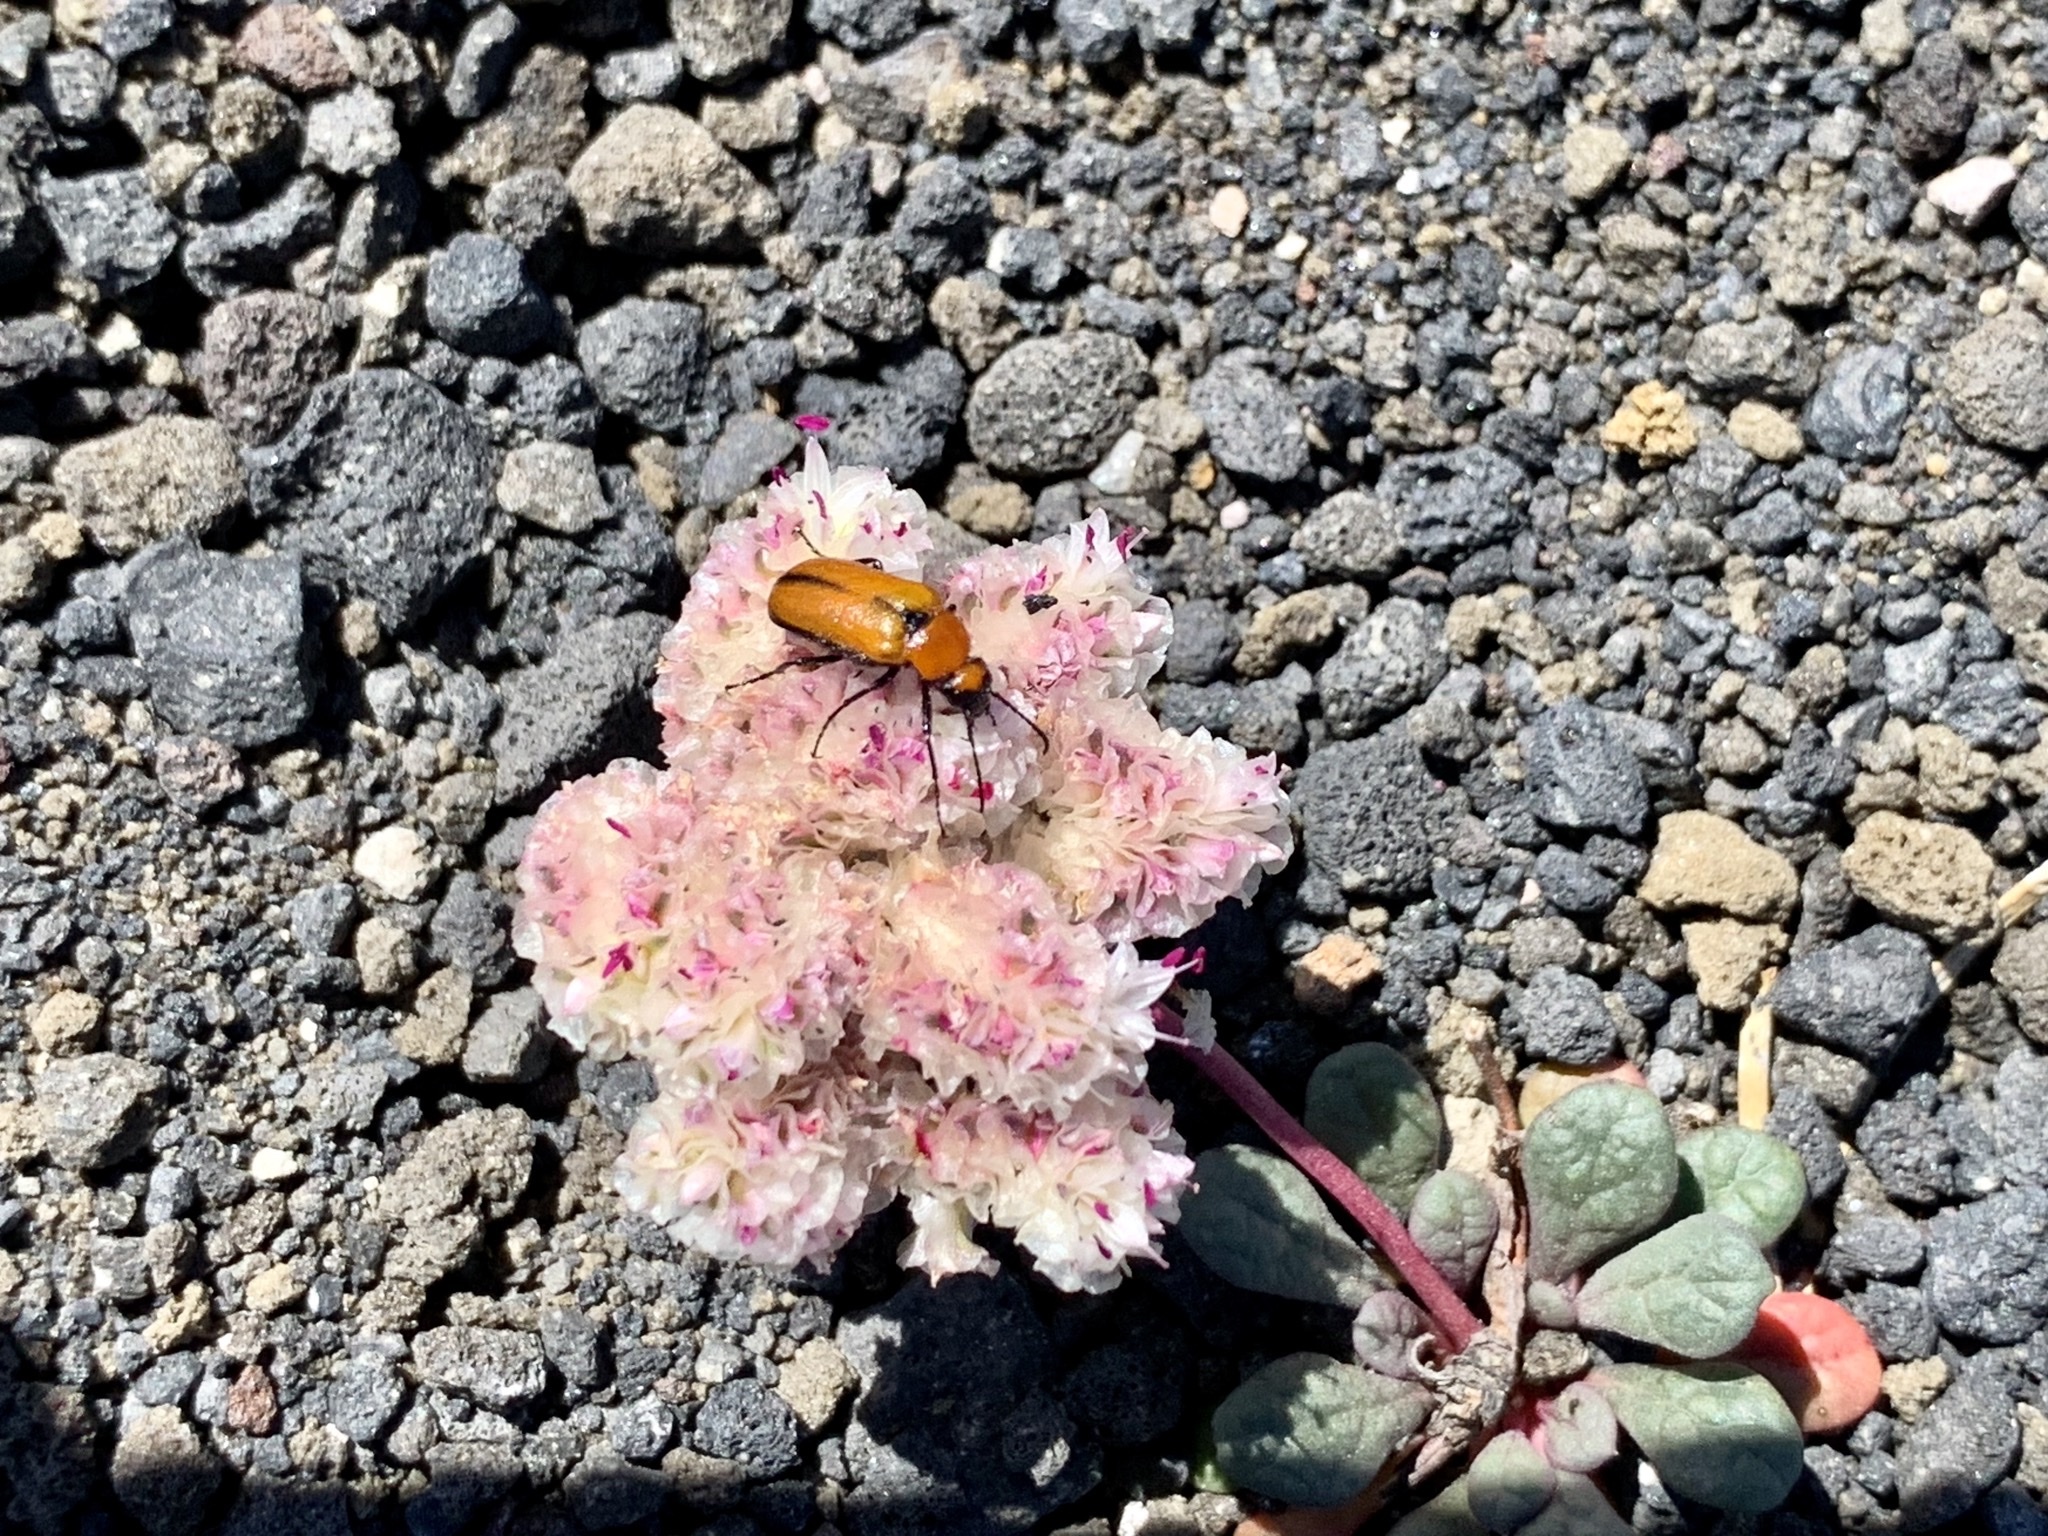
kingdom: Animalia
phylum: Arthropoda
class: Insecta
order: Coleoptera
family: Meloidae
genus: Nemognatha
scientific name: Nemognatha scutellaris
